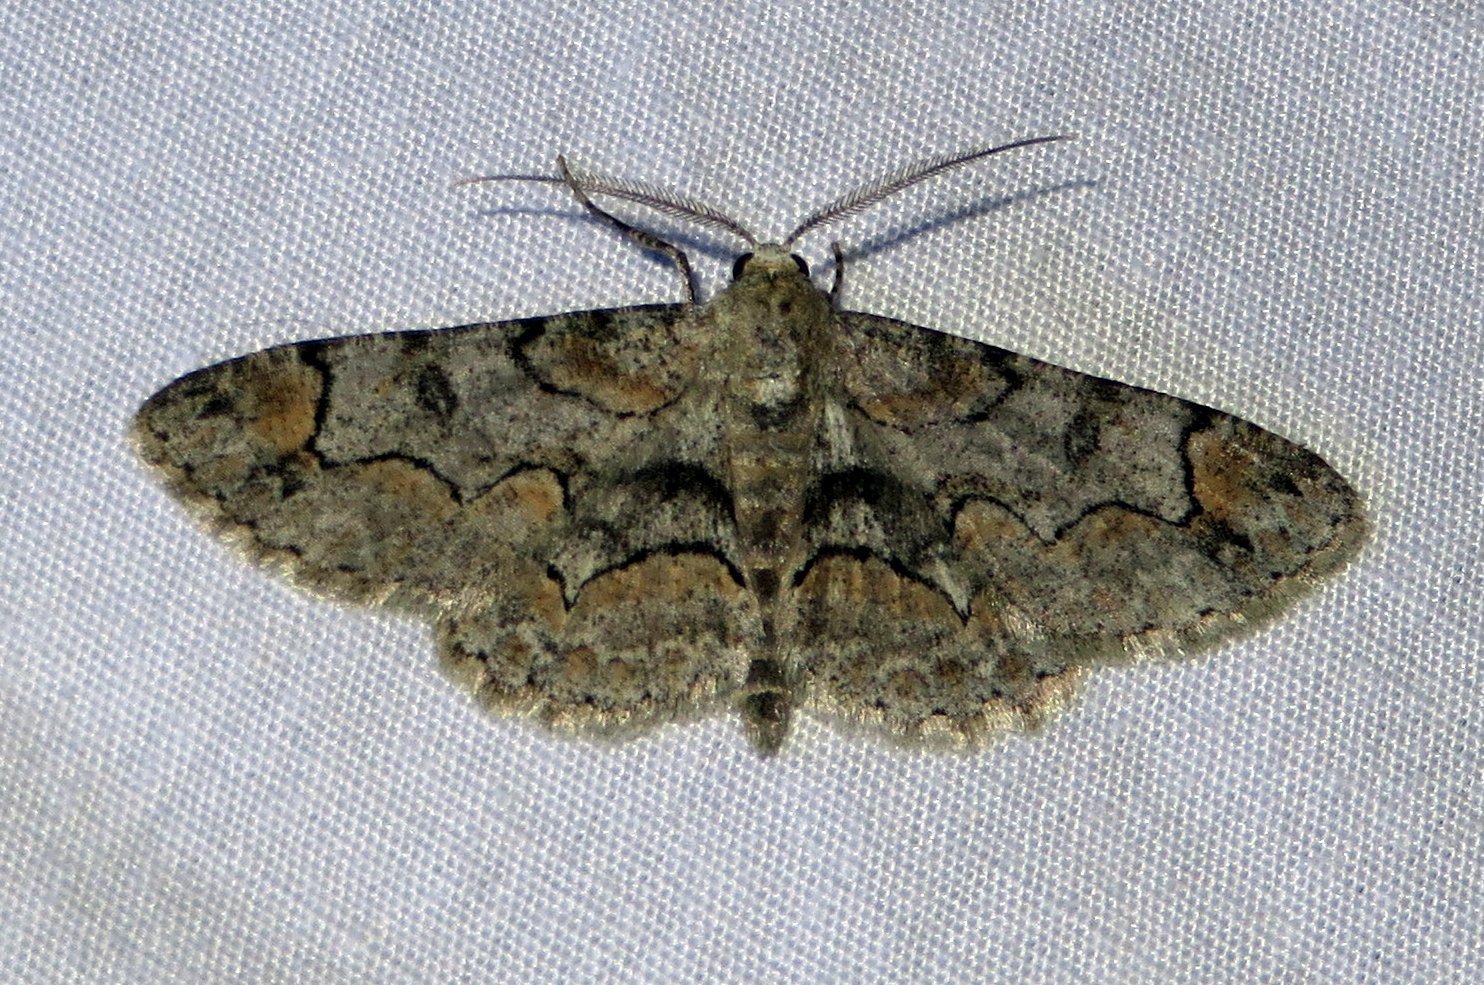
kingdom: Animalia
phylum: Arthropoda
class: Insecta
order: Lepidoptera
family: Geometridae
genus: Iridopsis
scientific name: Iridopsis larvaria
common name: Bent-line gray
